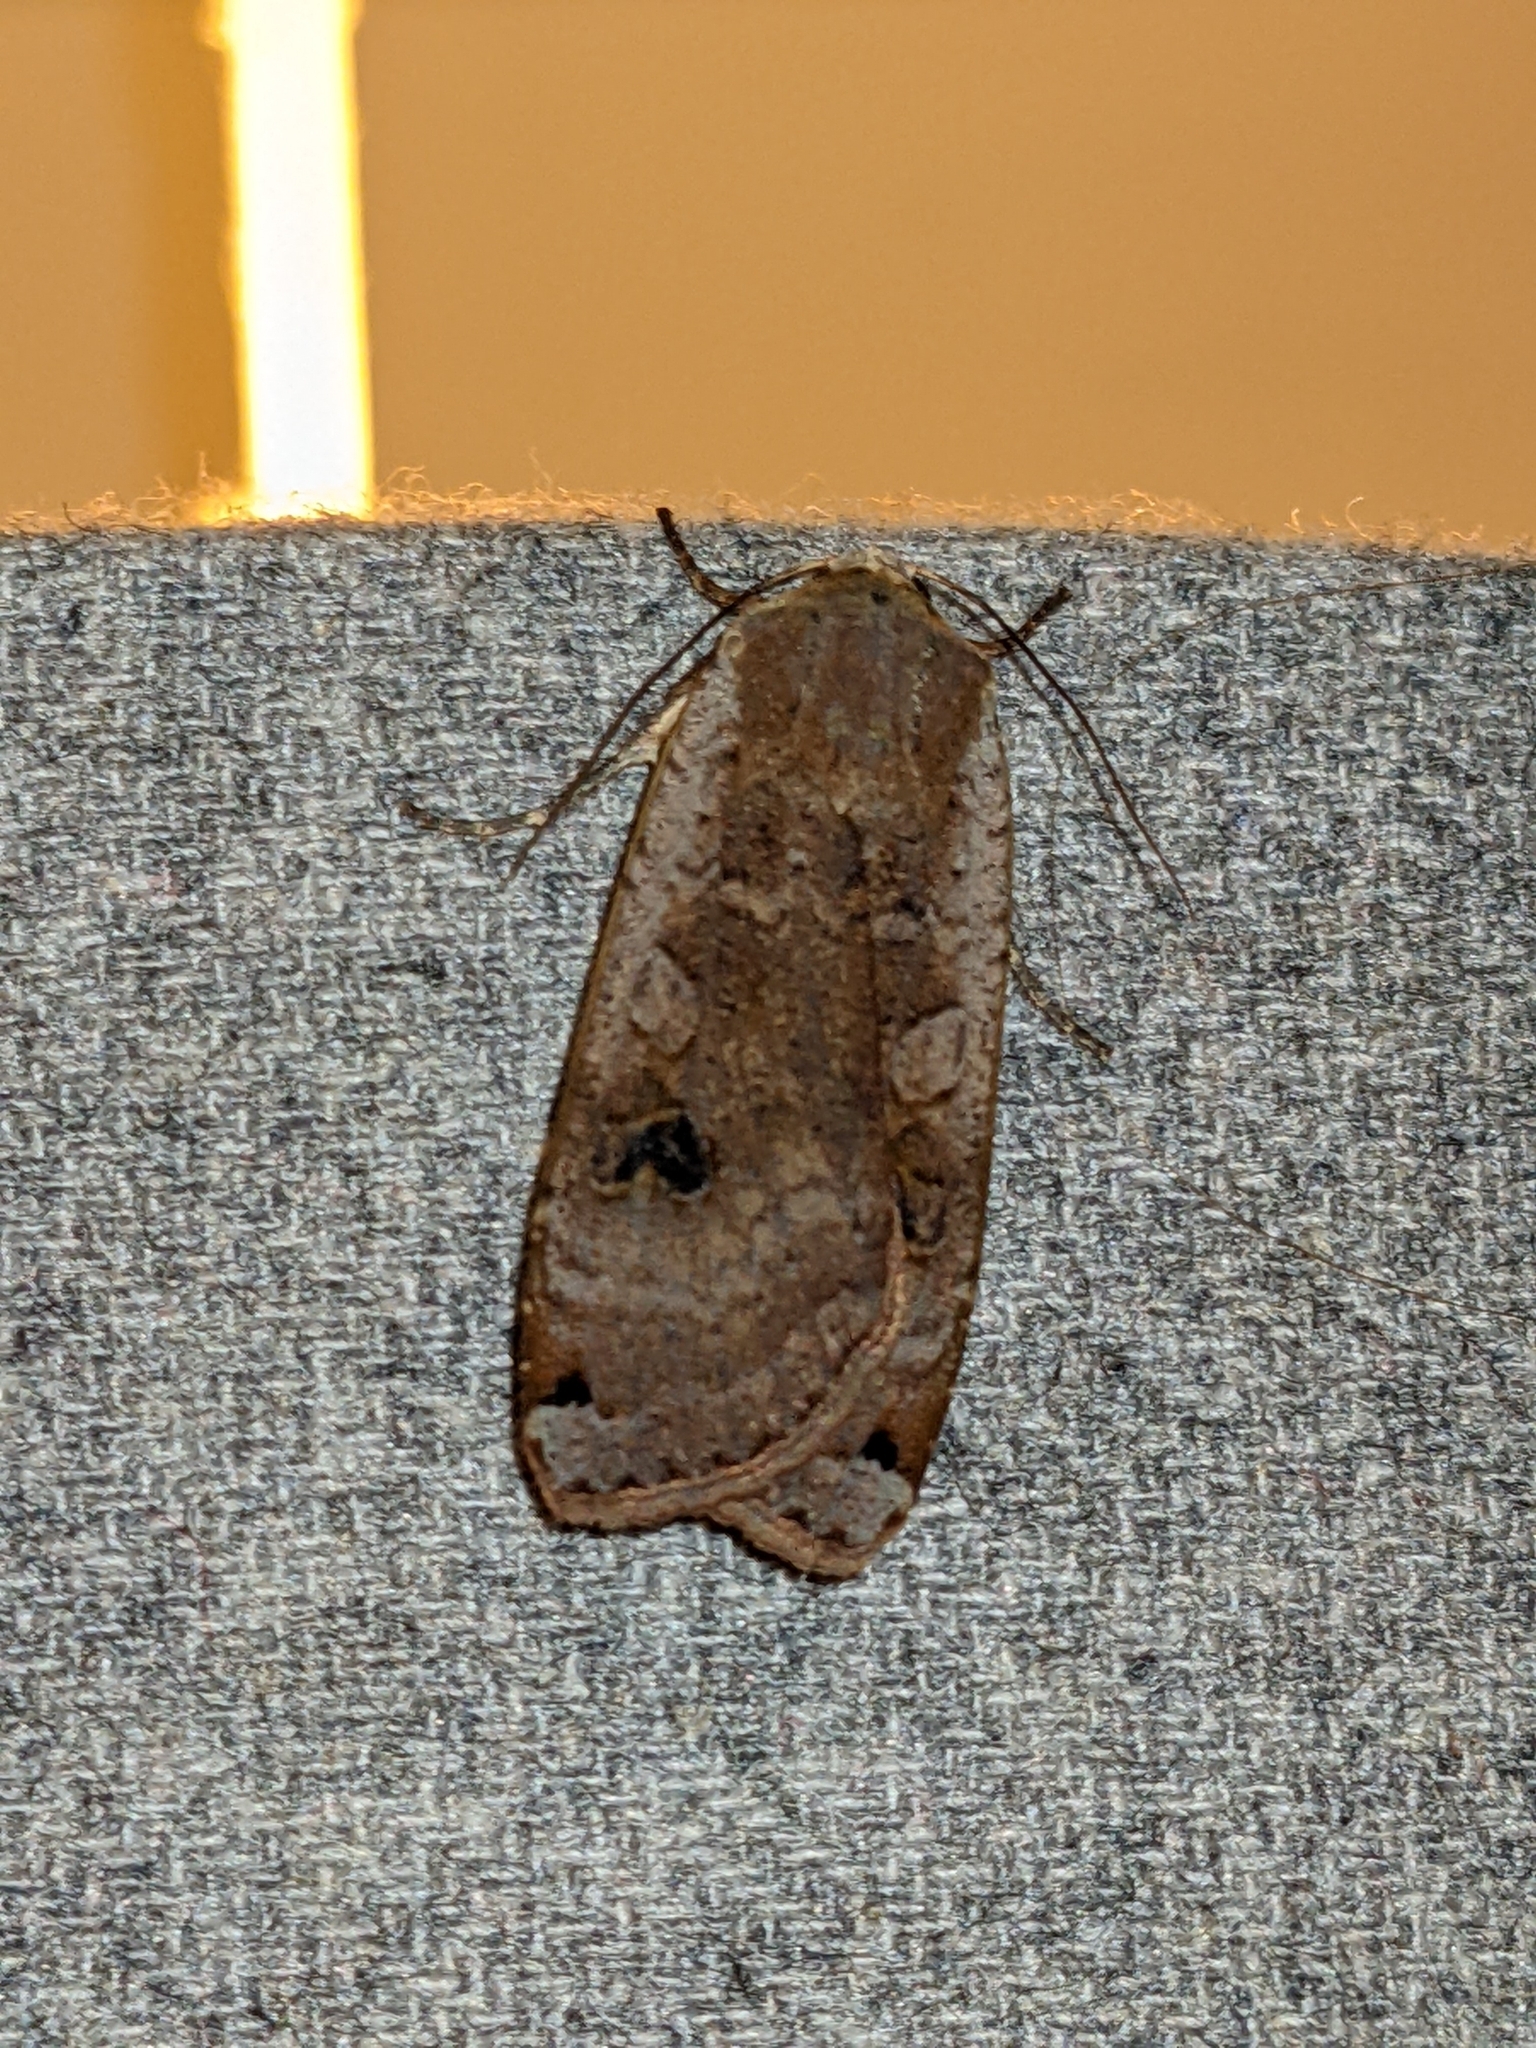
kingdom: Animalia
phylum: Arthropoda
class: Insecta
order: Lepidoptera
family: Noctuidae
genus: Noctua
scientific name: Noctua pronuba
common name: Large yellow underwing
